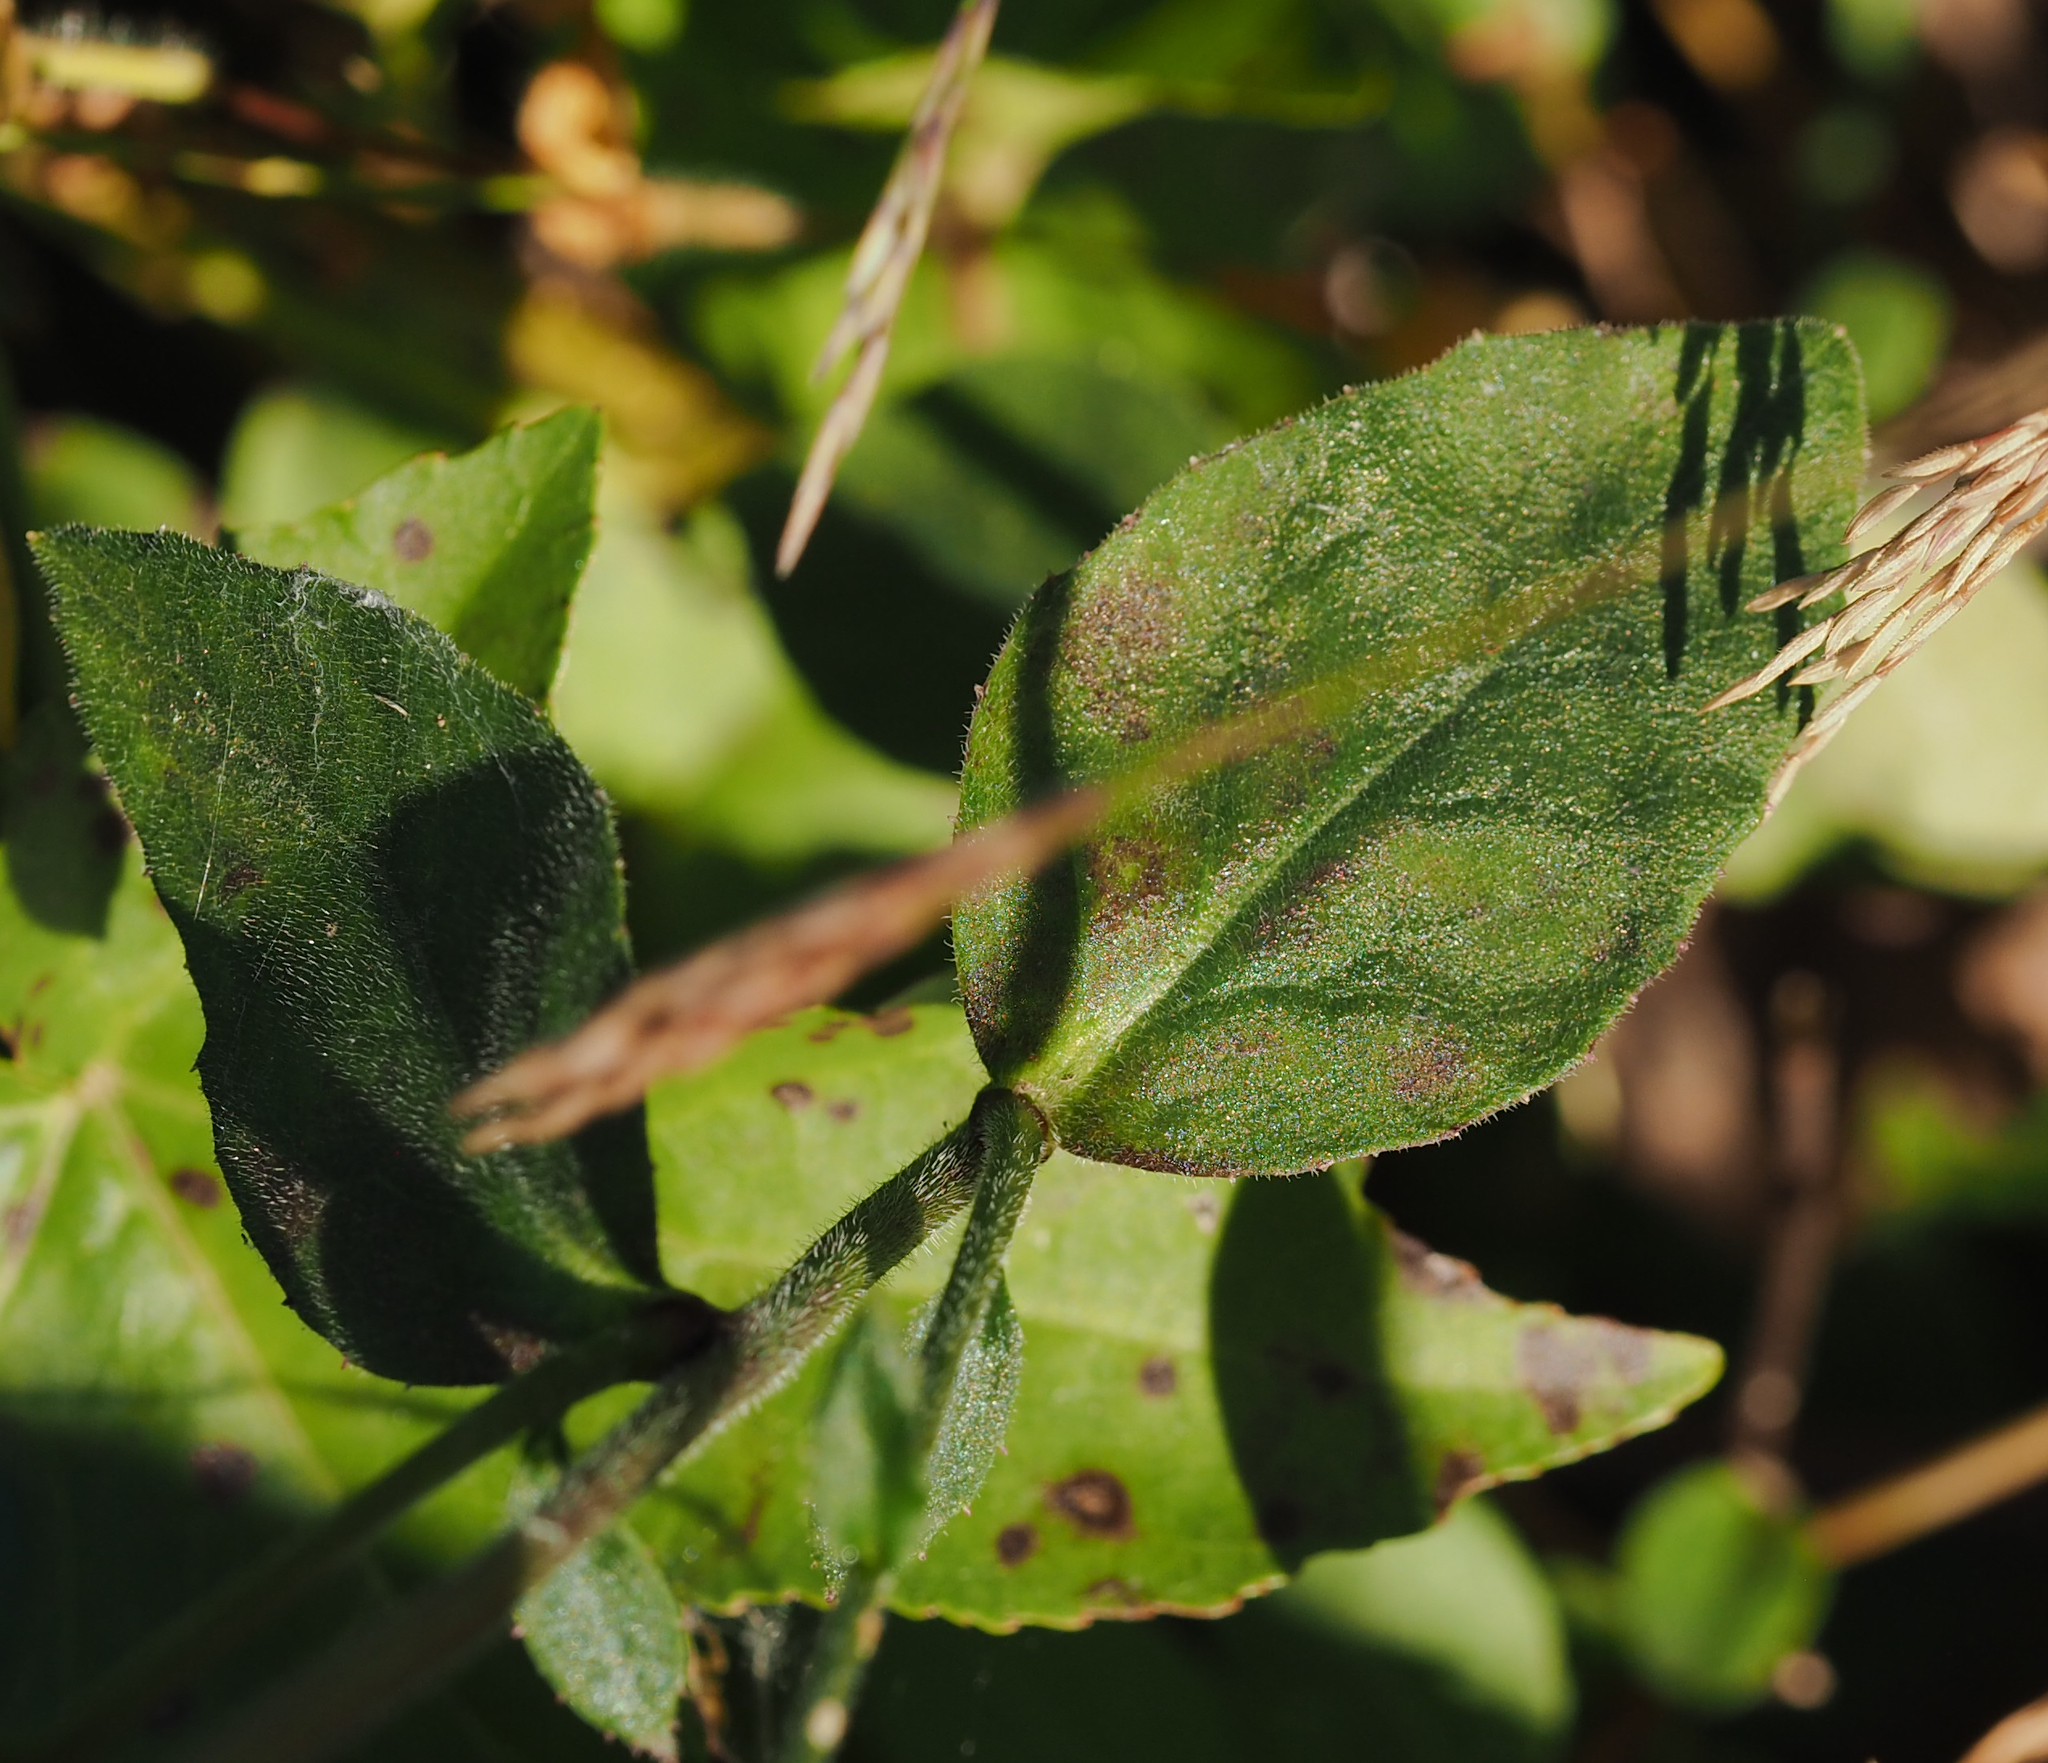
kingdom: Plantae
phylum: Tracheophyta
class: Magnoliopsida
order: Asterales
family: Campanulaceae
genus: Lobelia
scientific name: Lobelia puberula
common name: Purple dewdrop
